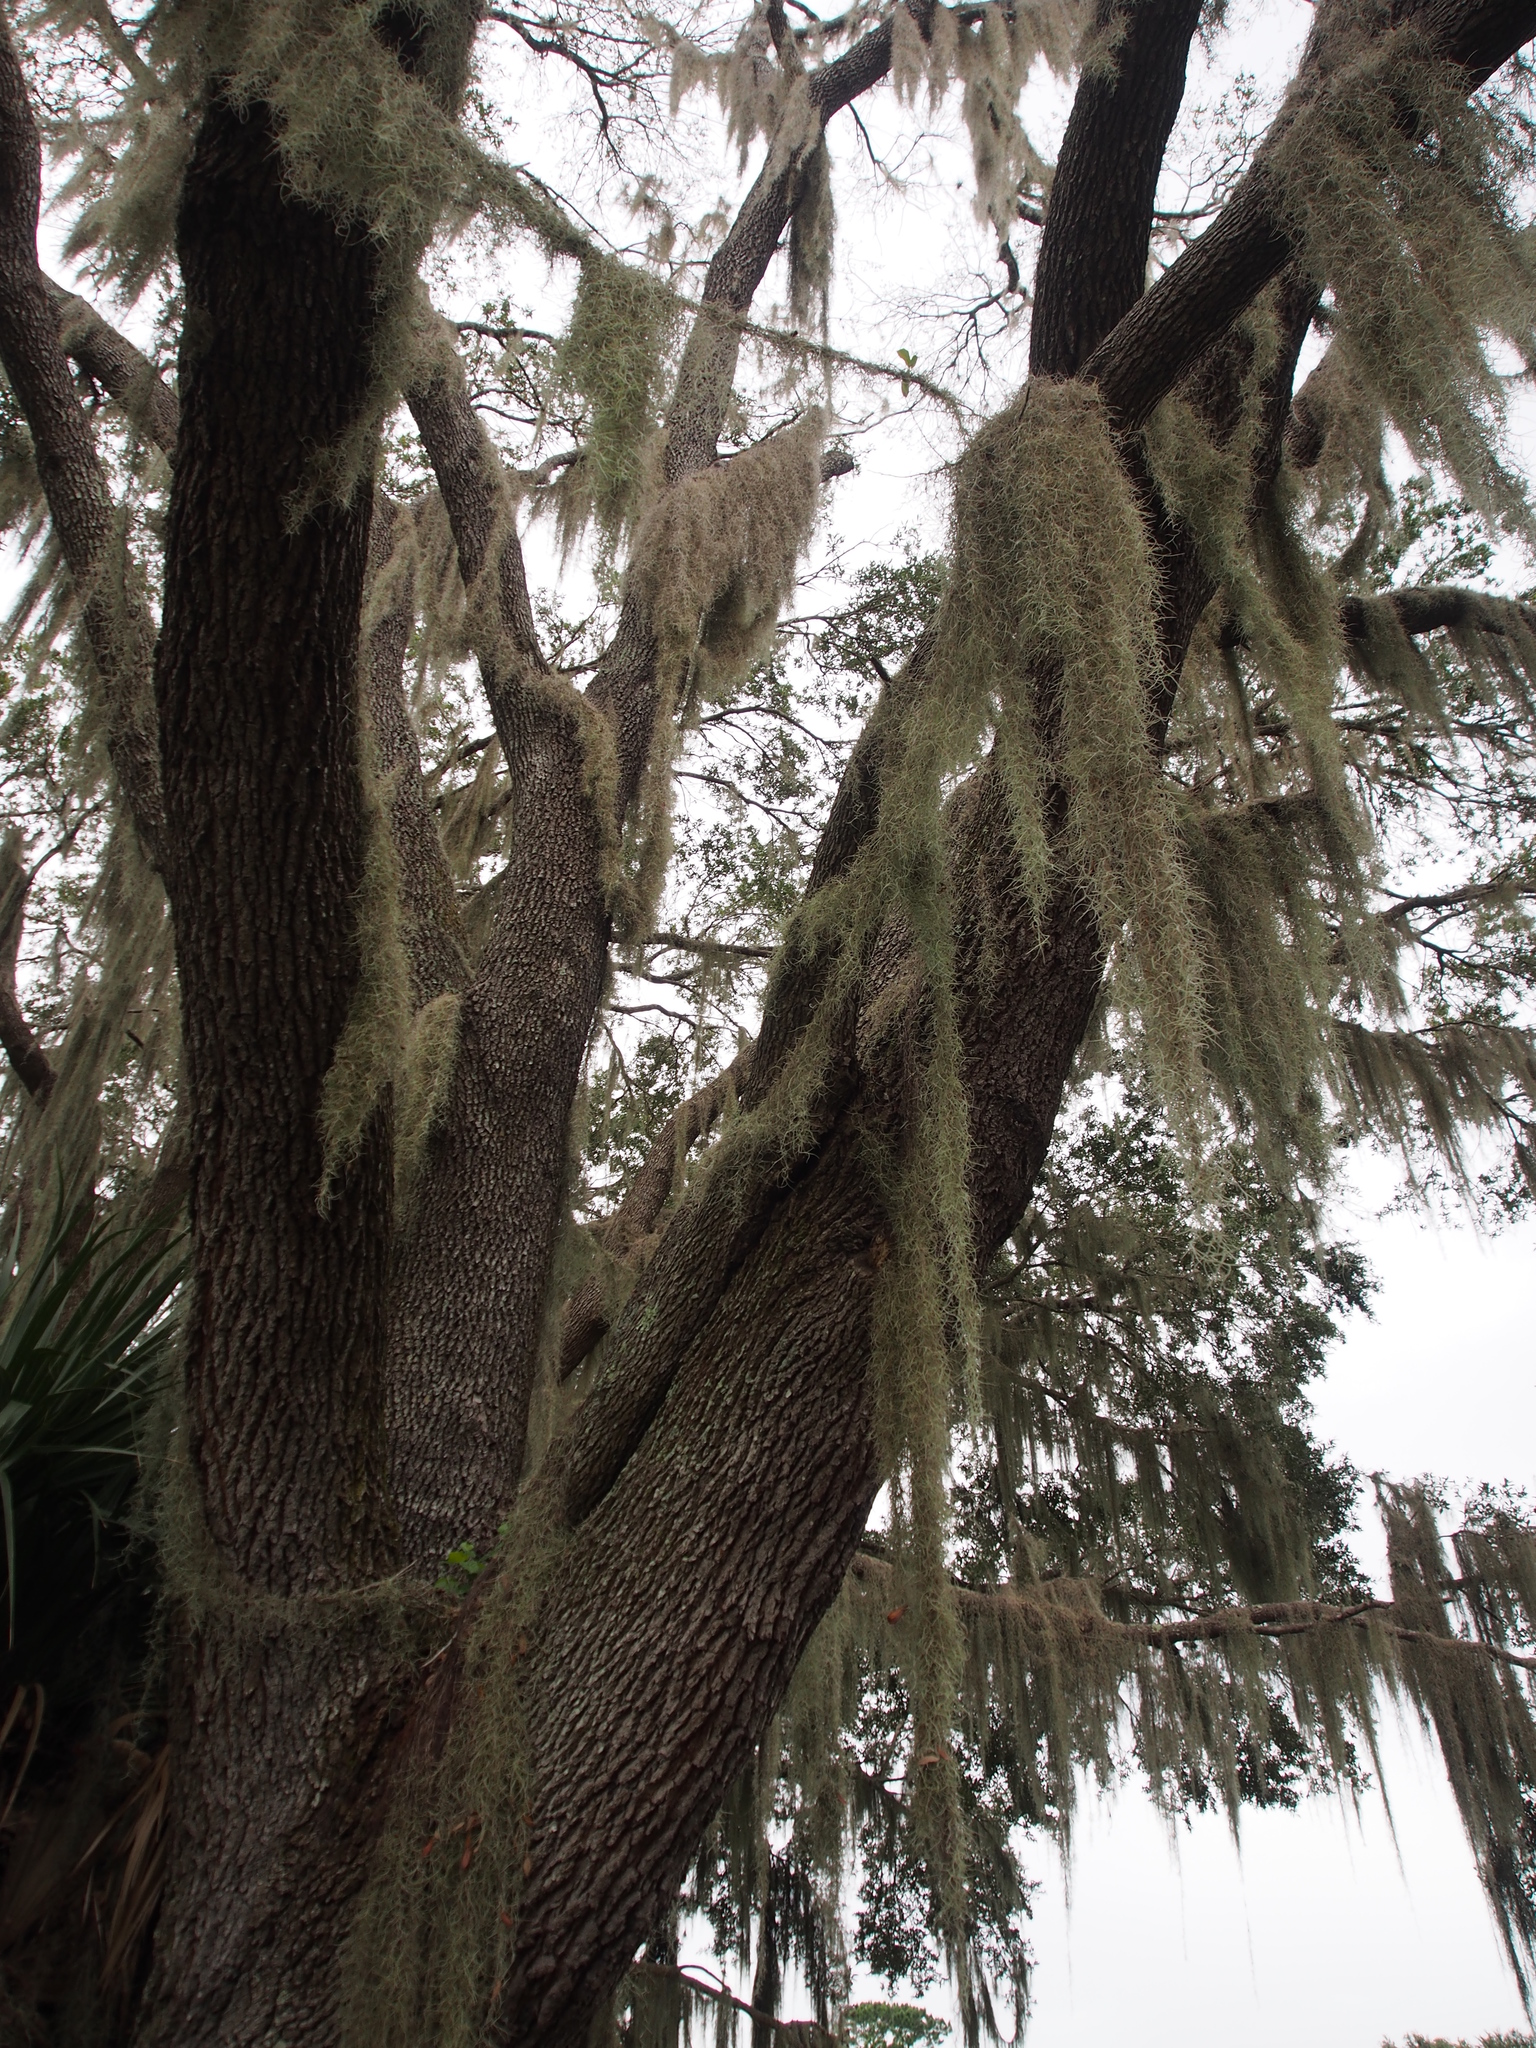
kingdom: Plantae
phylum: Tracheophyta
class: Liliopsida
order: Poales
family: Bromeliaceae
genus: Tillandsia
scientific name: Tillandsia usneoides
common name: Spanish moss
